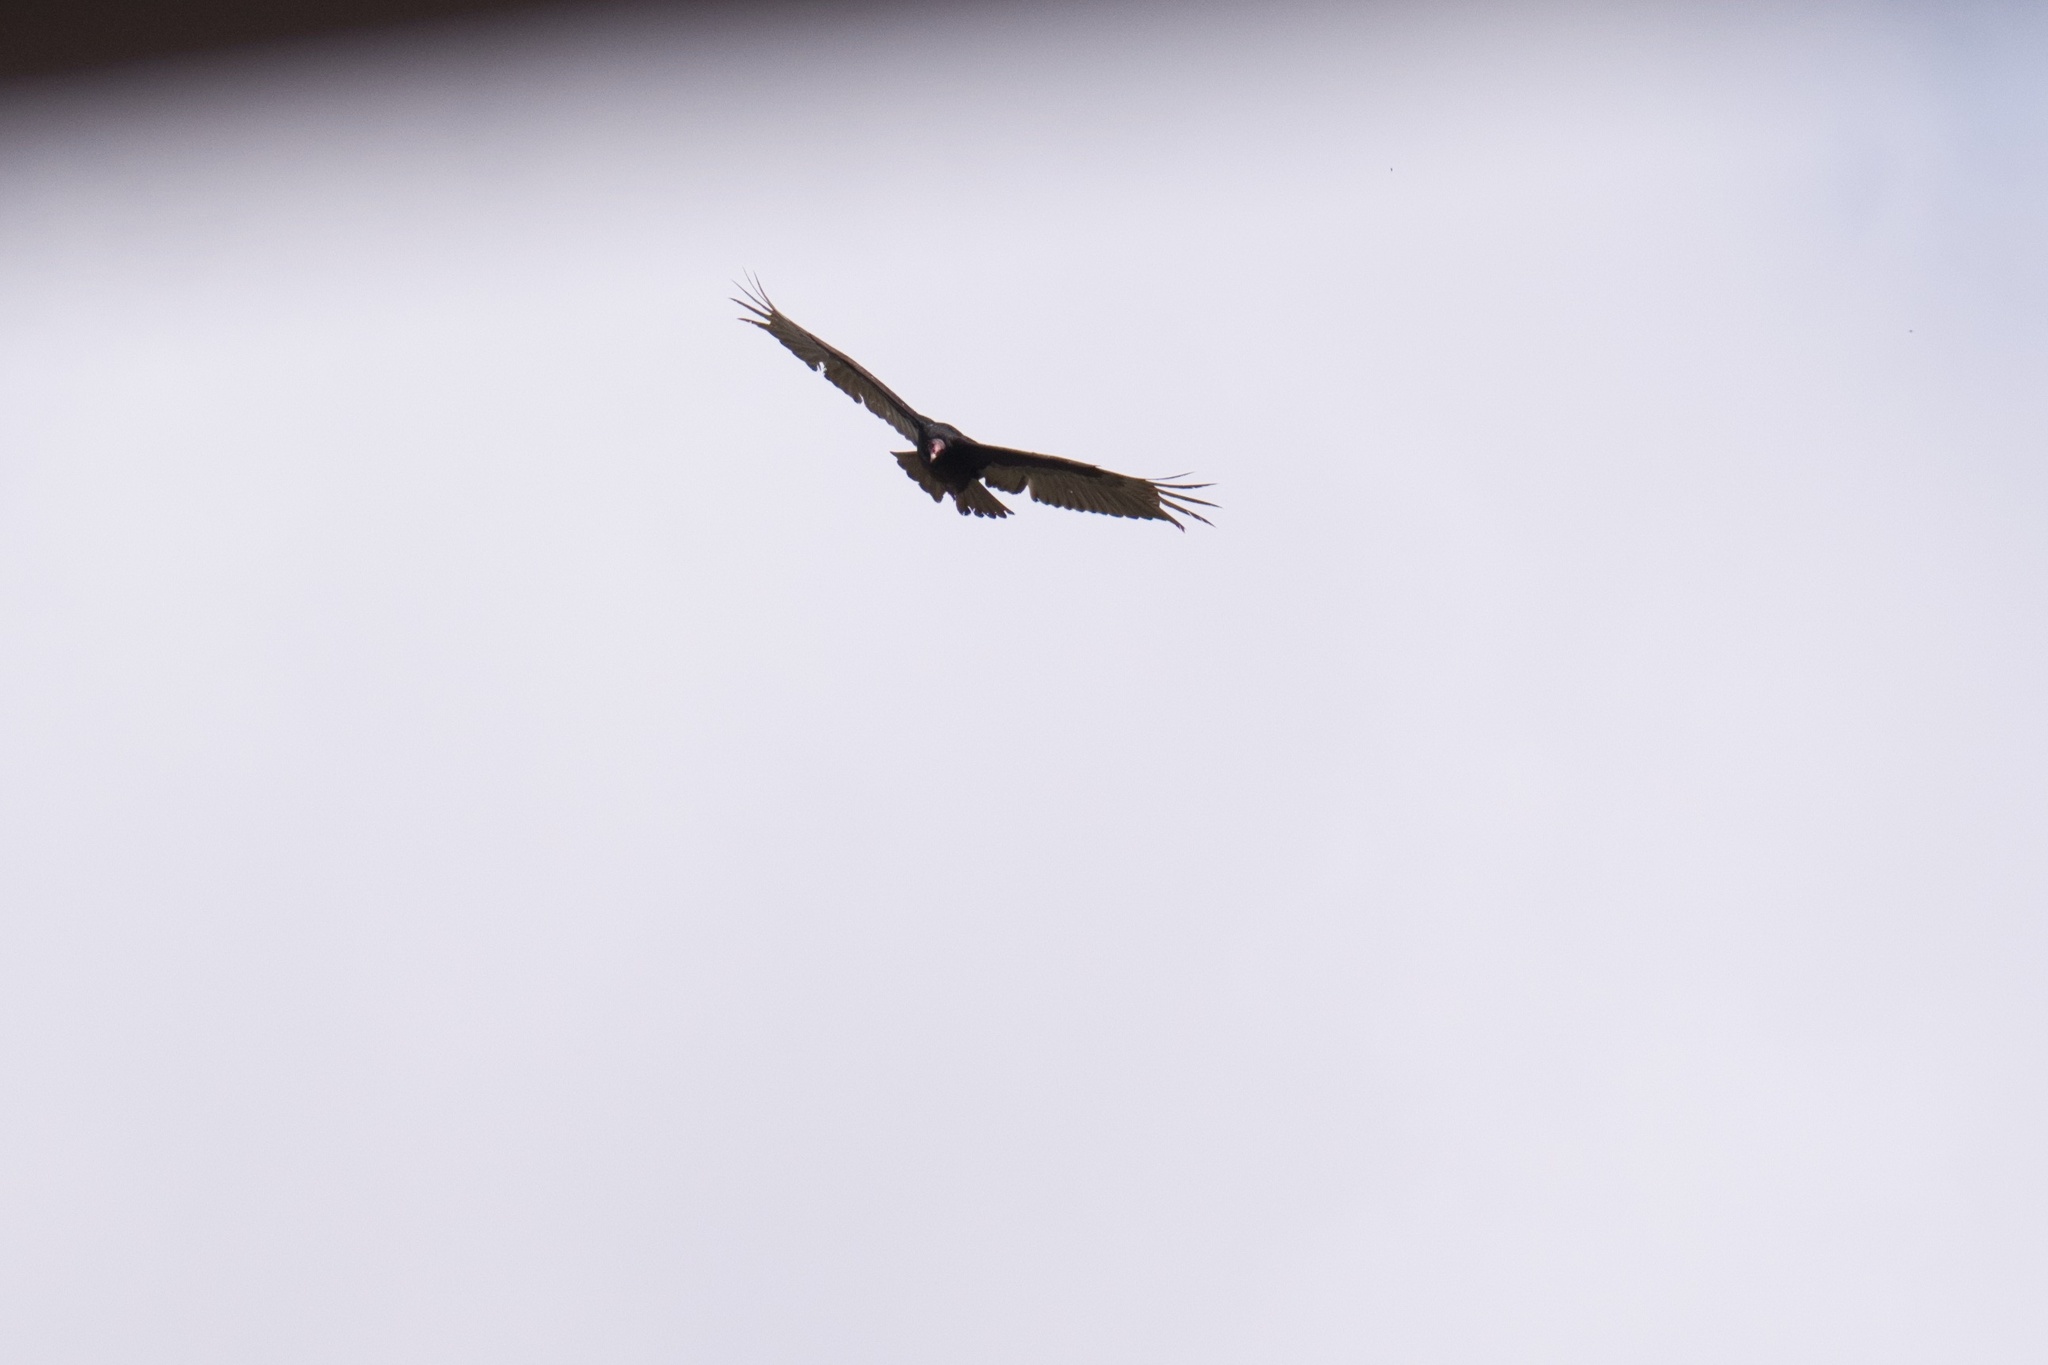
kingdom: Animalia
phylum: Chordata
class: Aves
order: Accipitriformes
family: Cathartidae
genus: Cathartes
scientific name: Cathartes aura
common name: Turkey vulture
